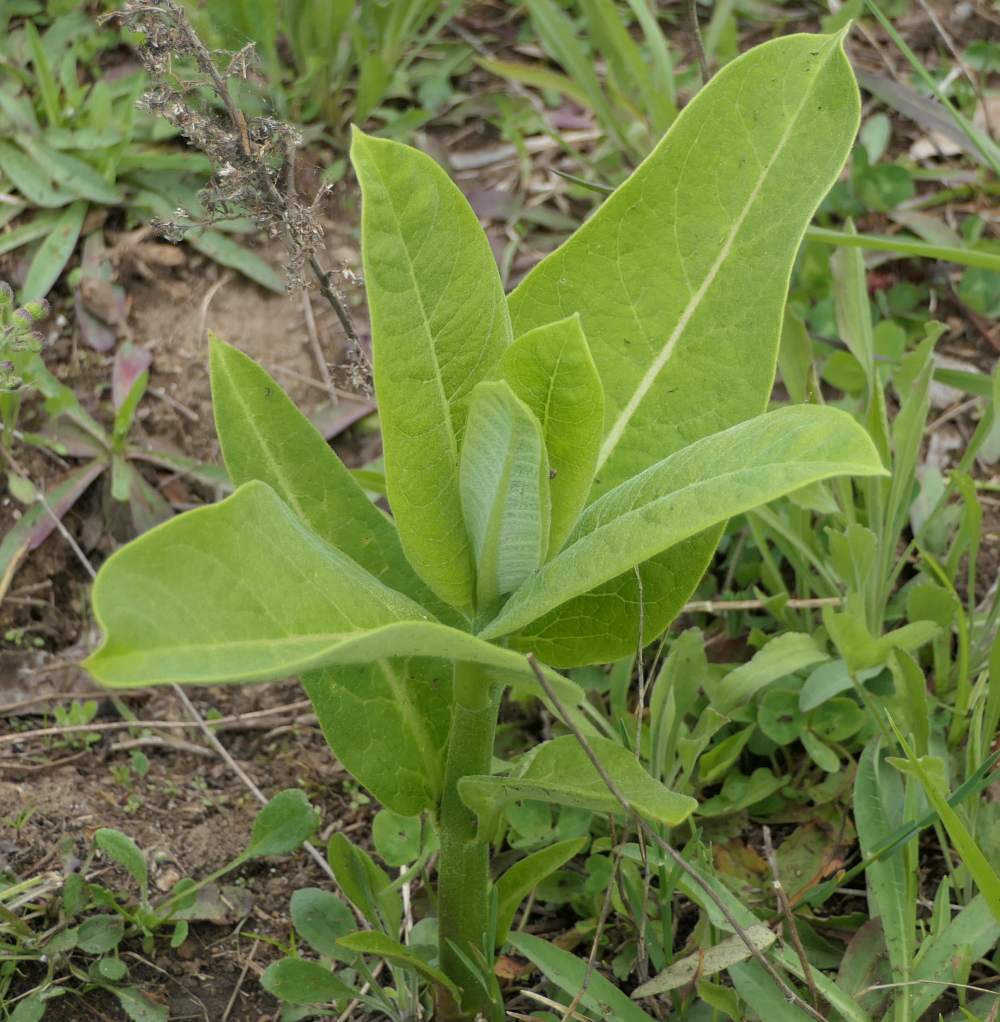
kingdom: Plantae
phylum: Tracheophyta
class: Magnoliopsida
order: Gentianales
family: Apocynaceae
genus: Asclepias
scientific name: Asclepias syriaca
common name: Common milkweed
